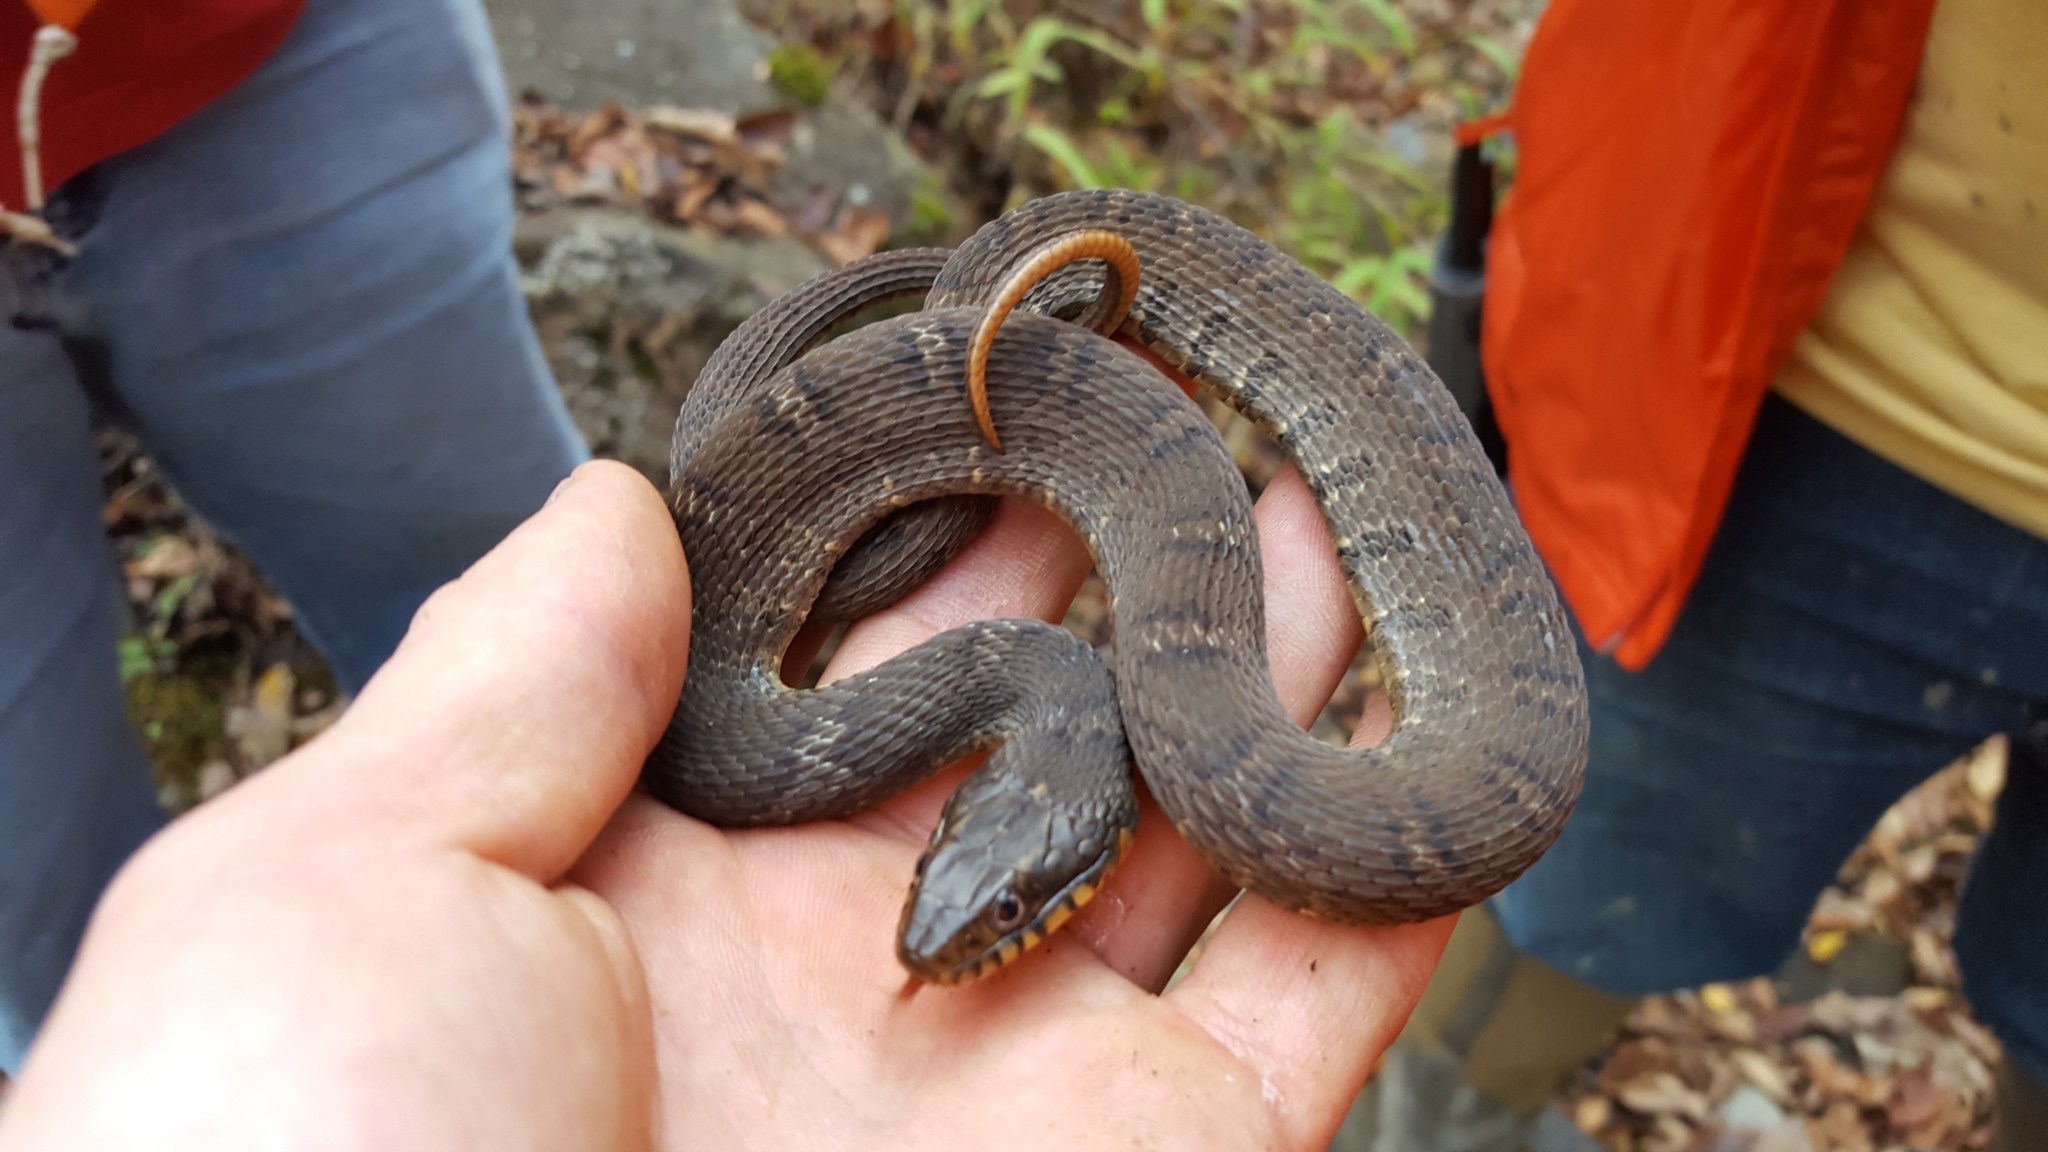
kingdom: Animalia
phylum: Chordata
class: Squamata
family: Colubridae
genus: Nerodia
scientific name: Nerodia erythrogaster
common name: Plainbelly water snake
